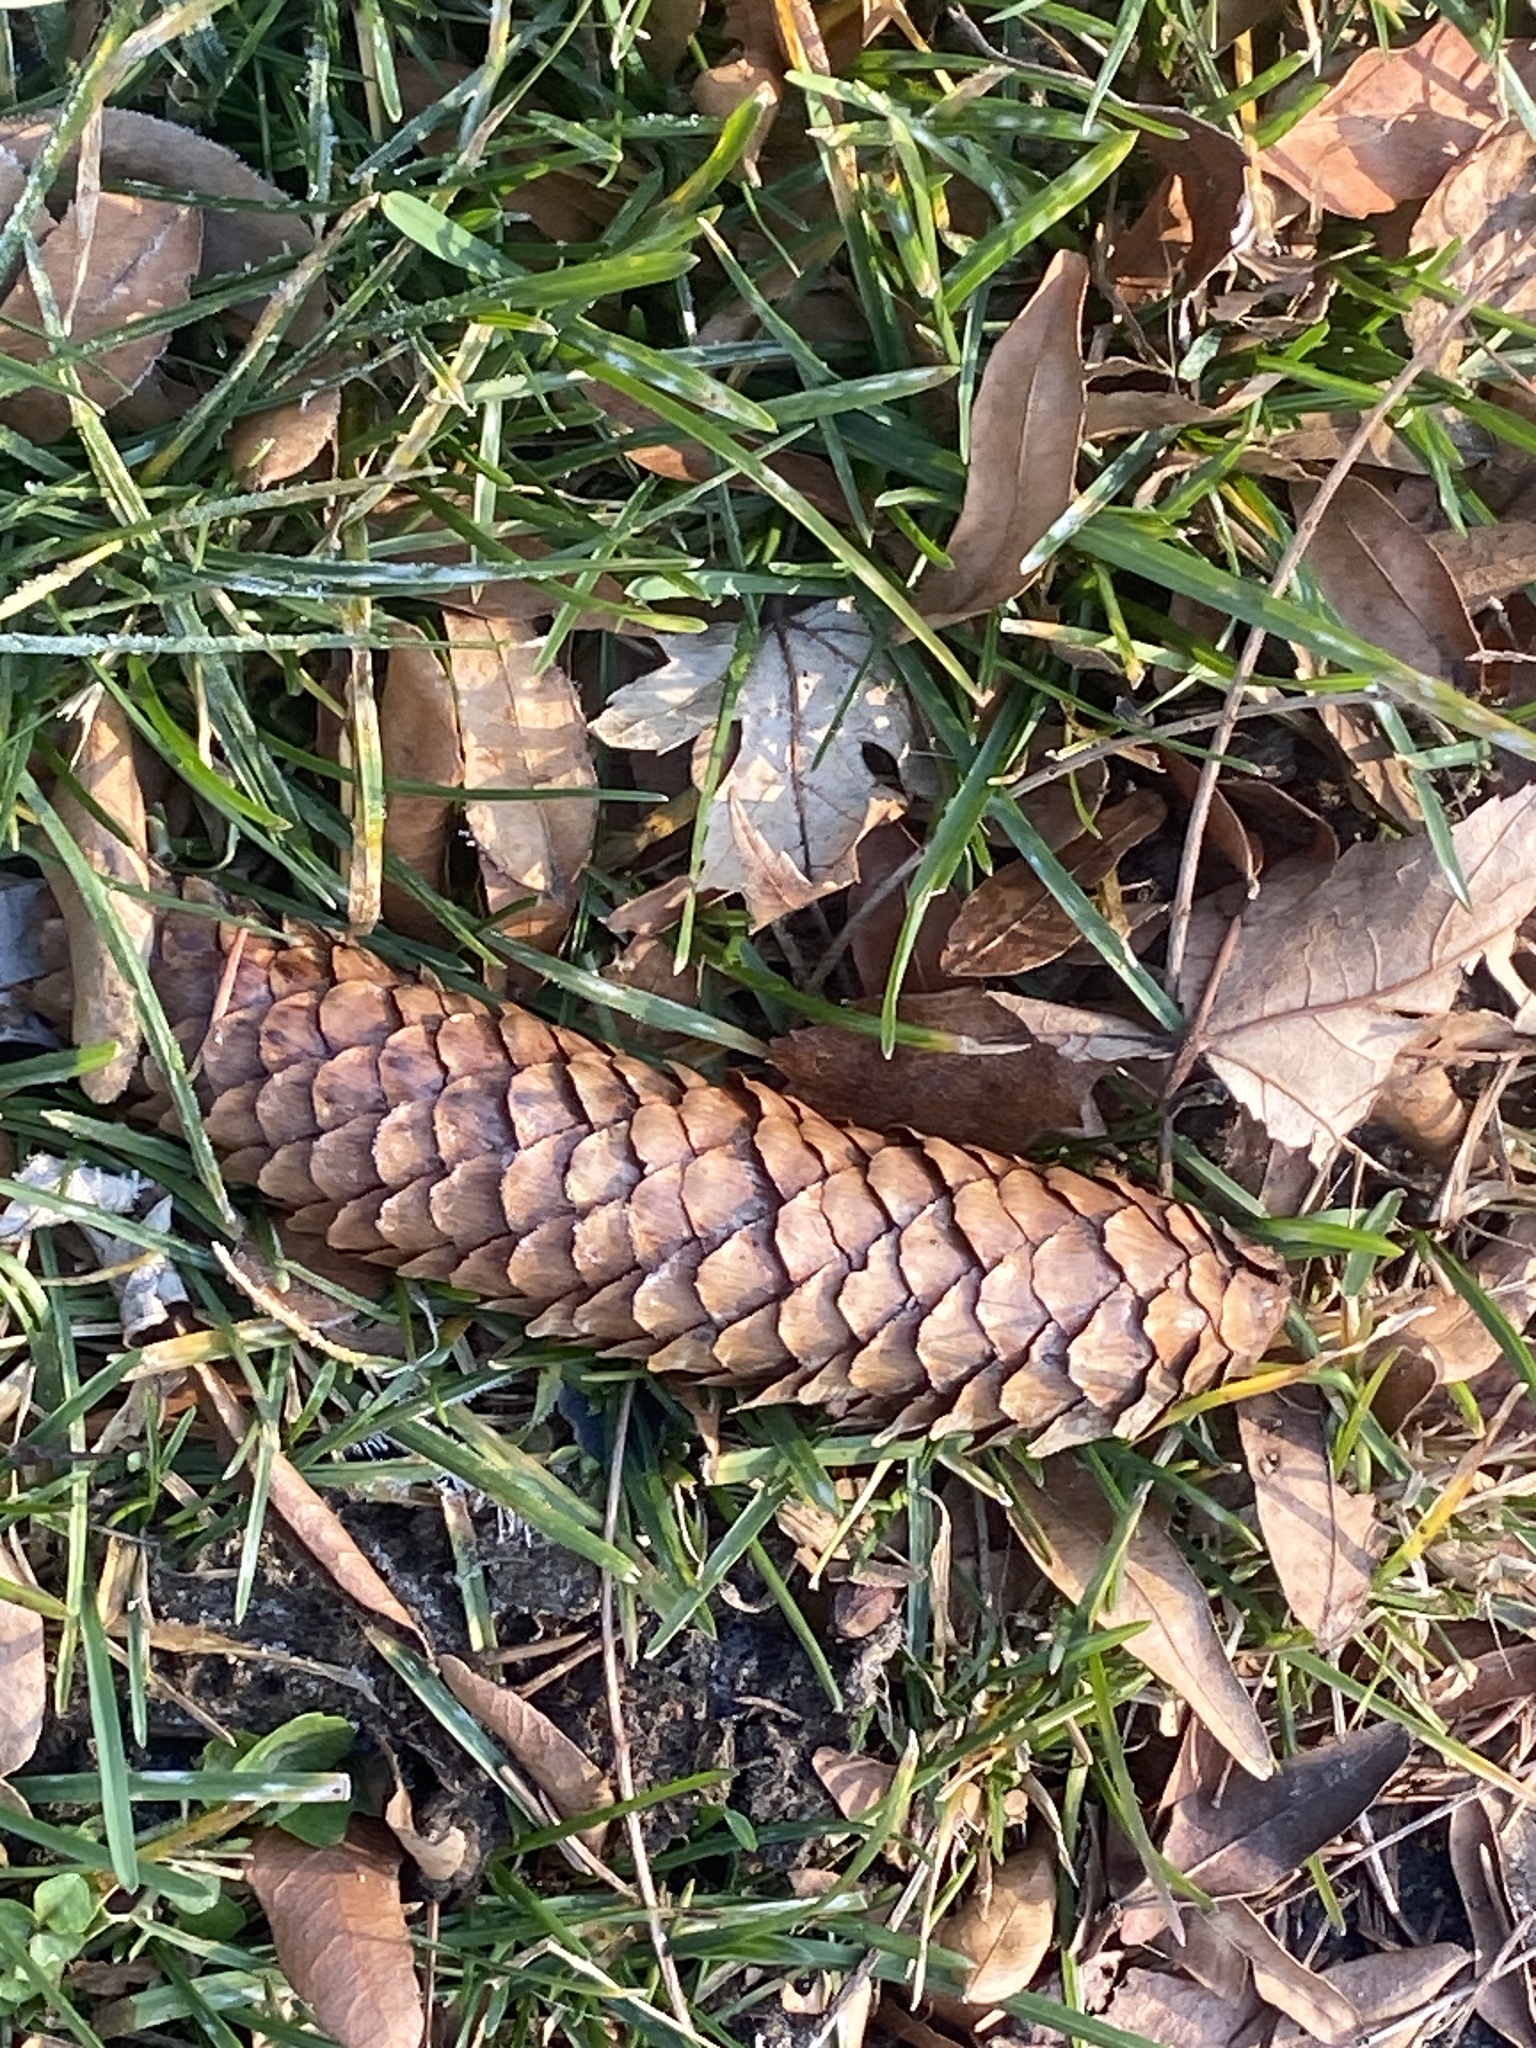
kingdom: Plantae
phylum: Tracheophyta
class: Pinopsida
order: Pinales
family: Pinaceae
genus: Picea
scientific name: Picea abies
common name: Norway spruce
